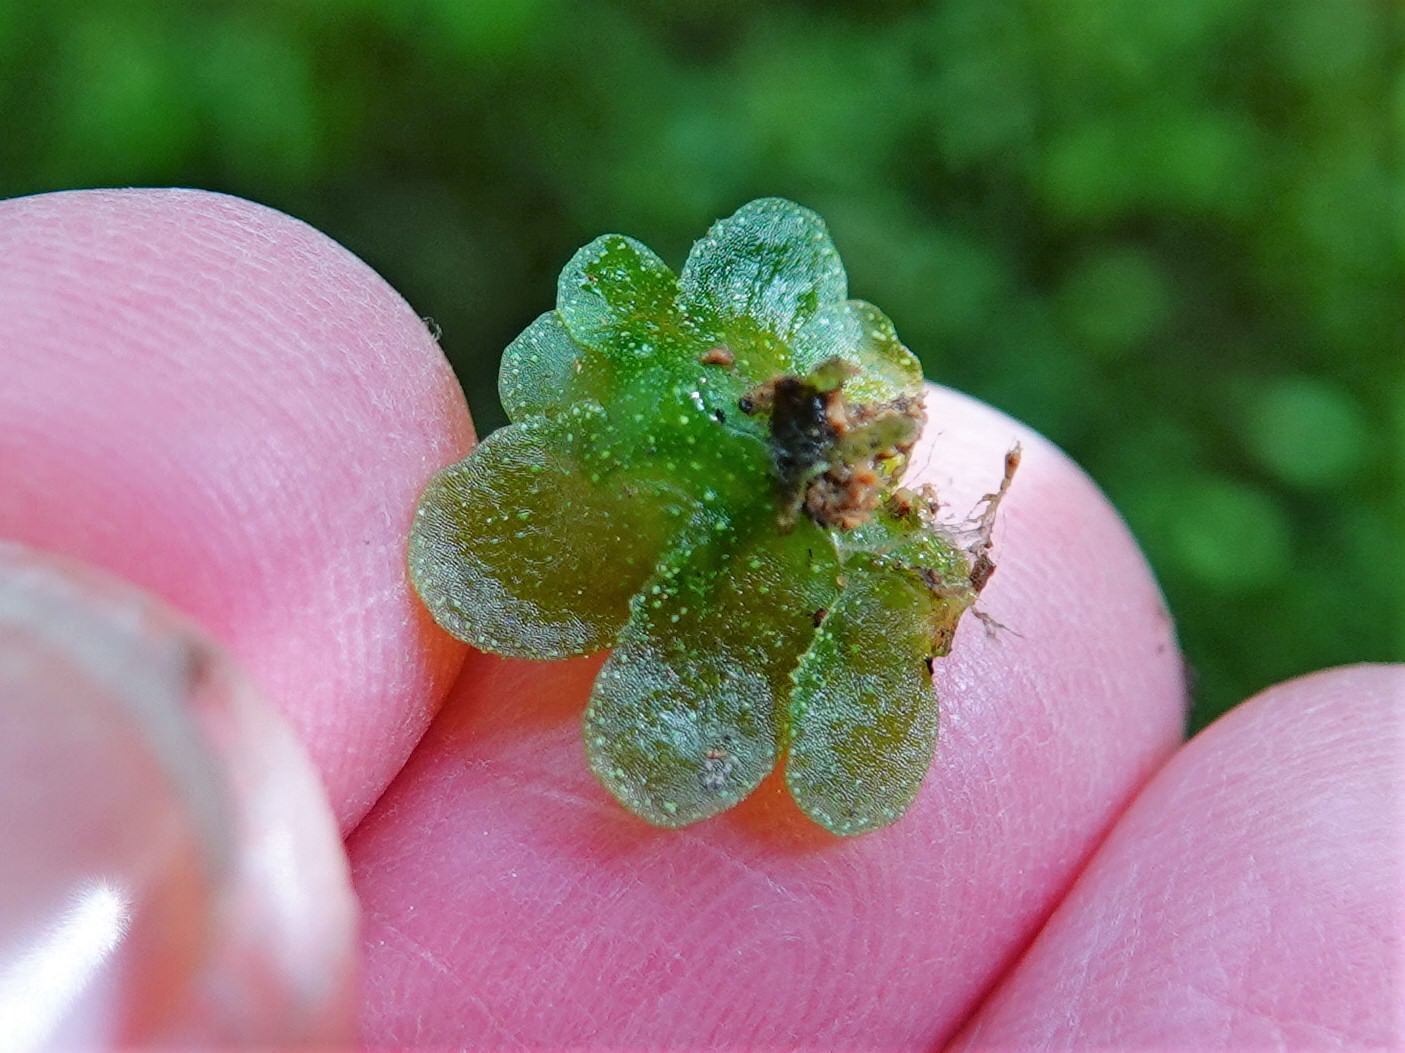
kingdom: Plantae
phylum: Marchantiophyta
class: Haplomitriopsida
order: Treubiales
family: Treubiaceae
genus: Treubia
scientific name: Treubia lacunosa
